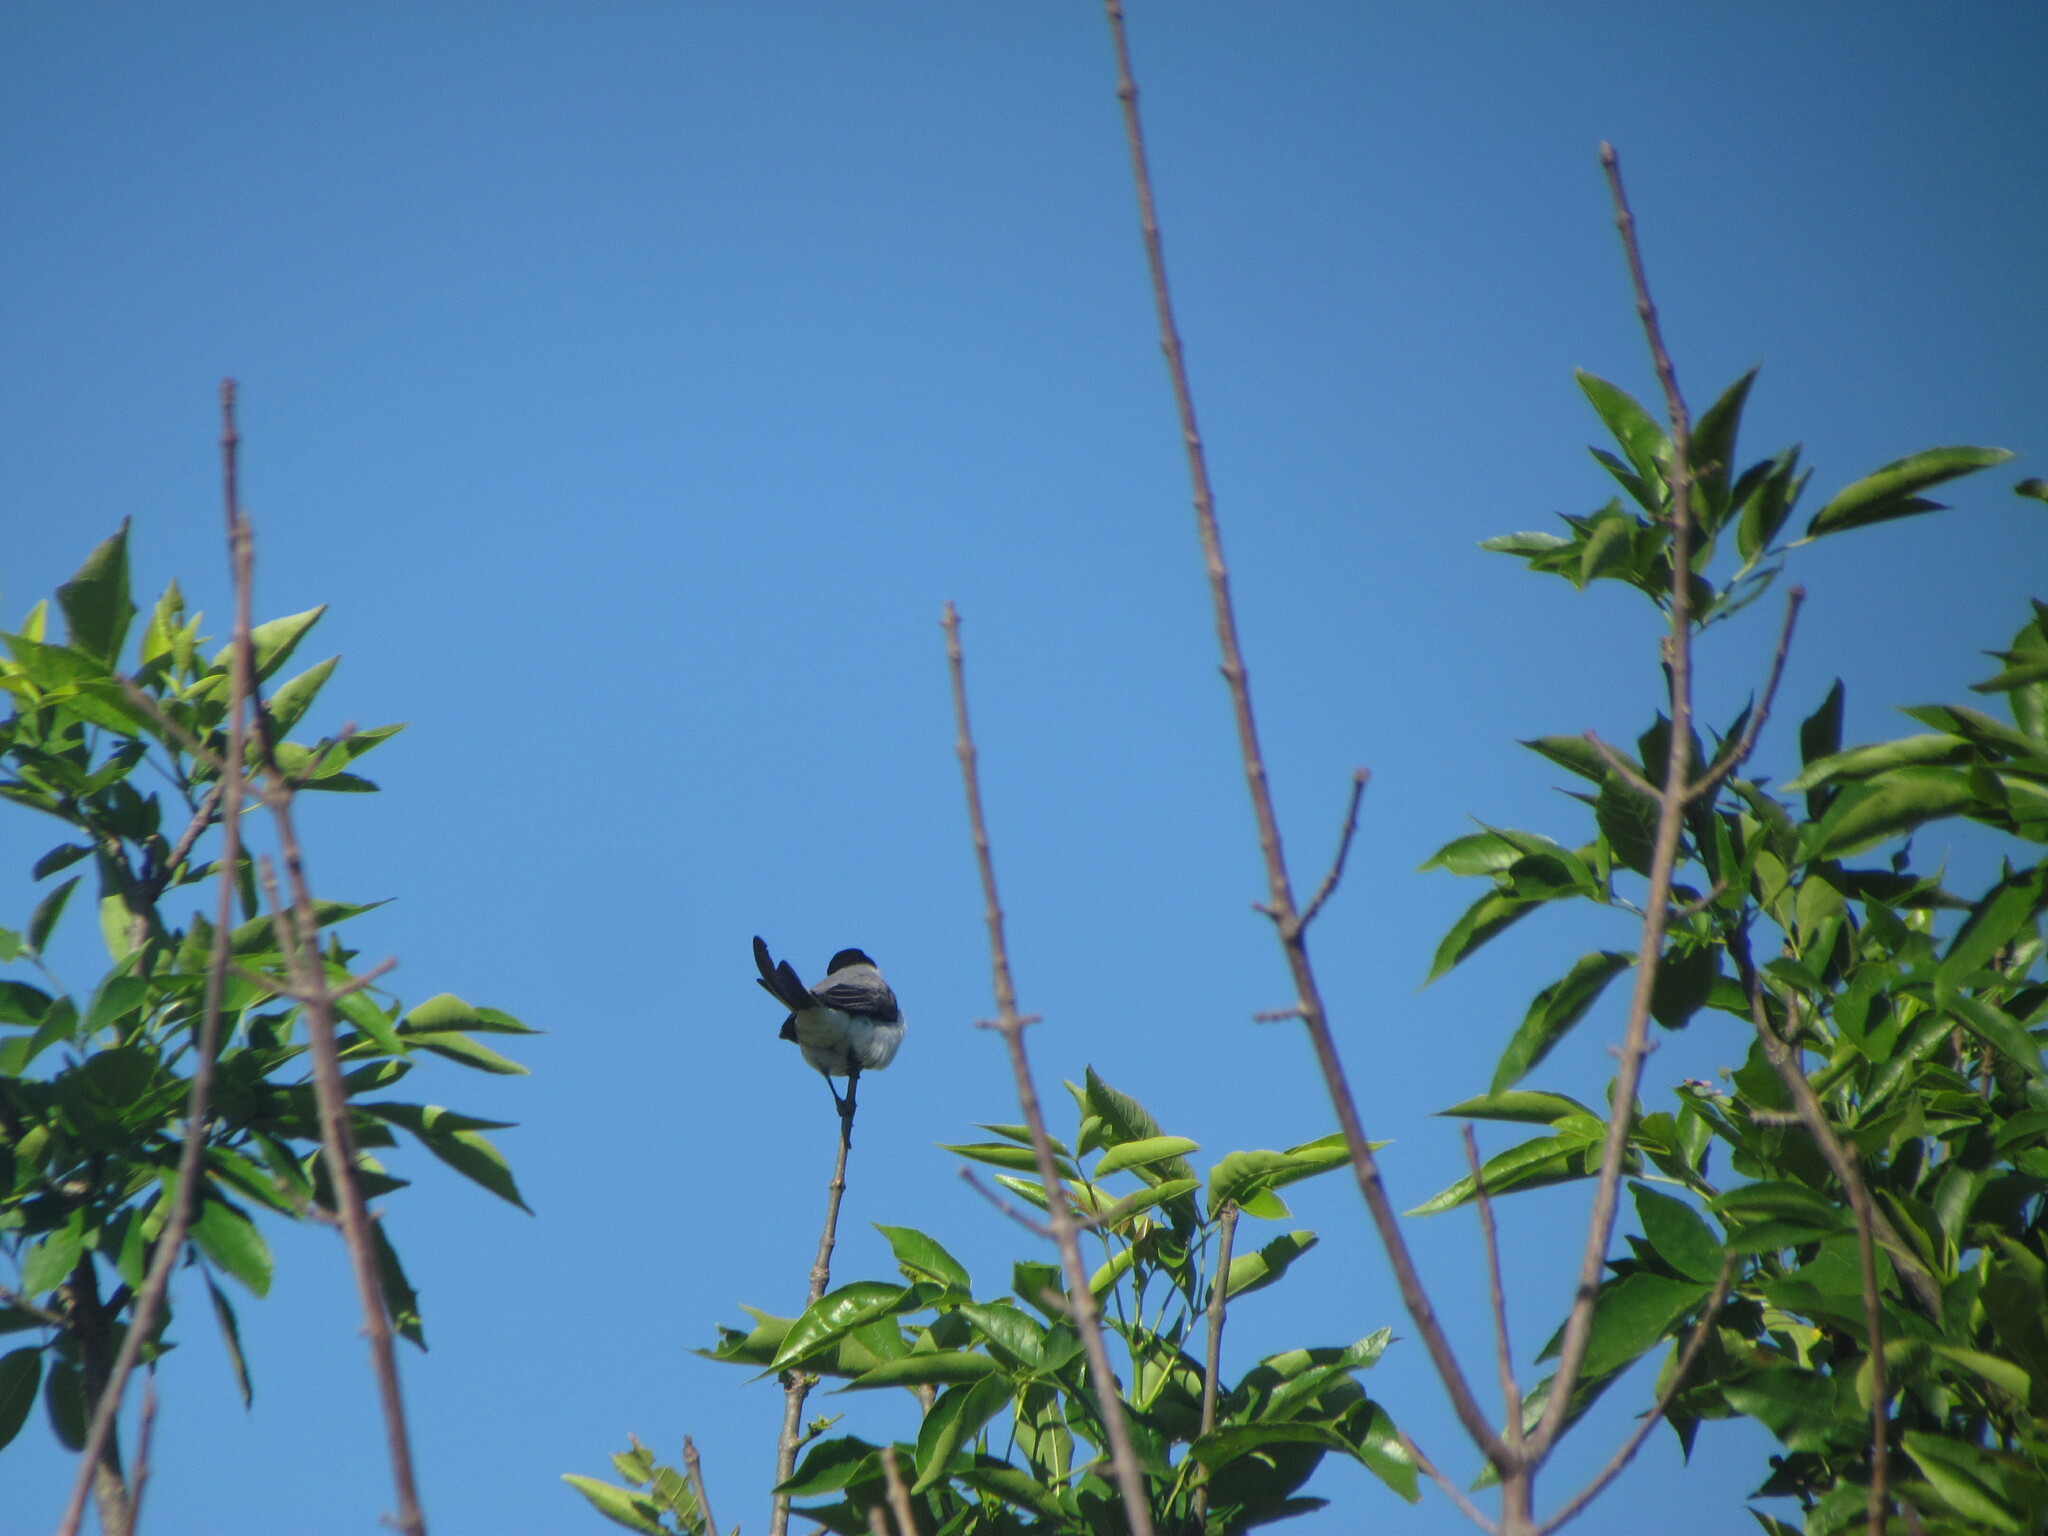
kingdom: Animalia
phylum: Chordata
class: Aves
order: Passeriformes
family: Tyrannidae
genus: Tyrannus
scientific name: Tyrannus savana
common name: Fork-tailed flycatcher
